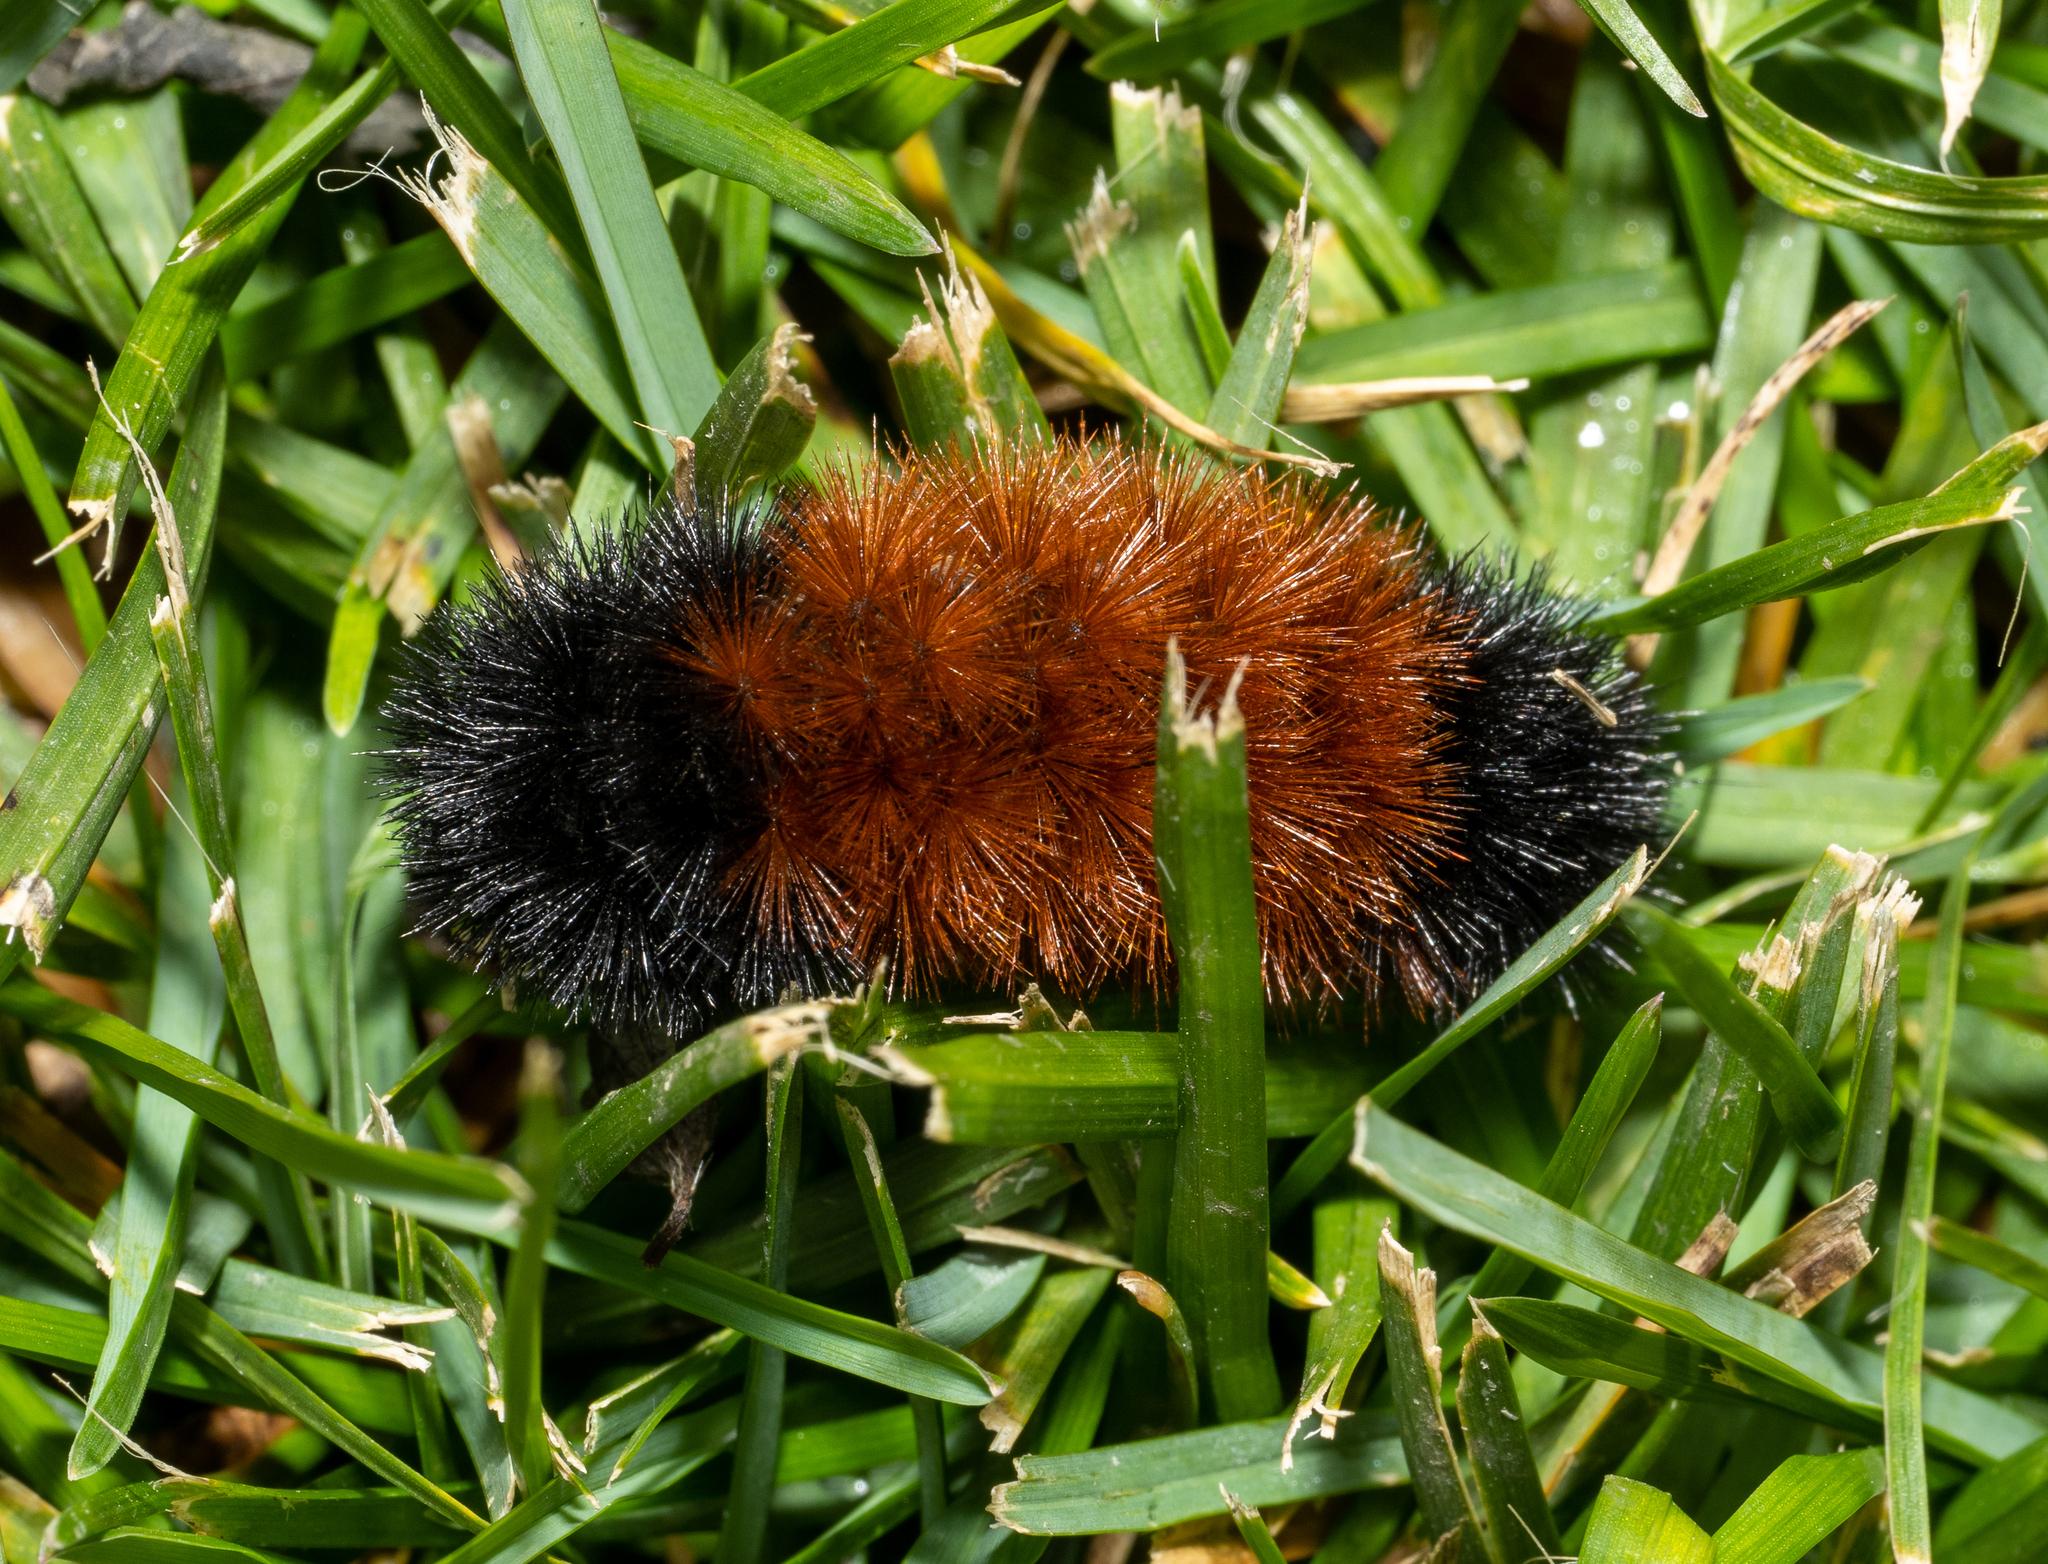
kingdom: Animalia
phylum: Arthropoda
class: Insecta
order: Lepidoptera
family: Erebidae
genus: Pyrrharctia
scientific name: Pyrrharctia isabella
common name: Isabella tiger moth
